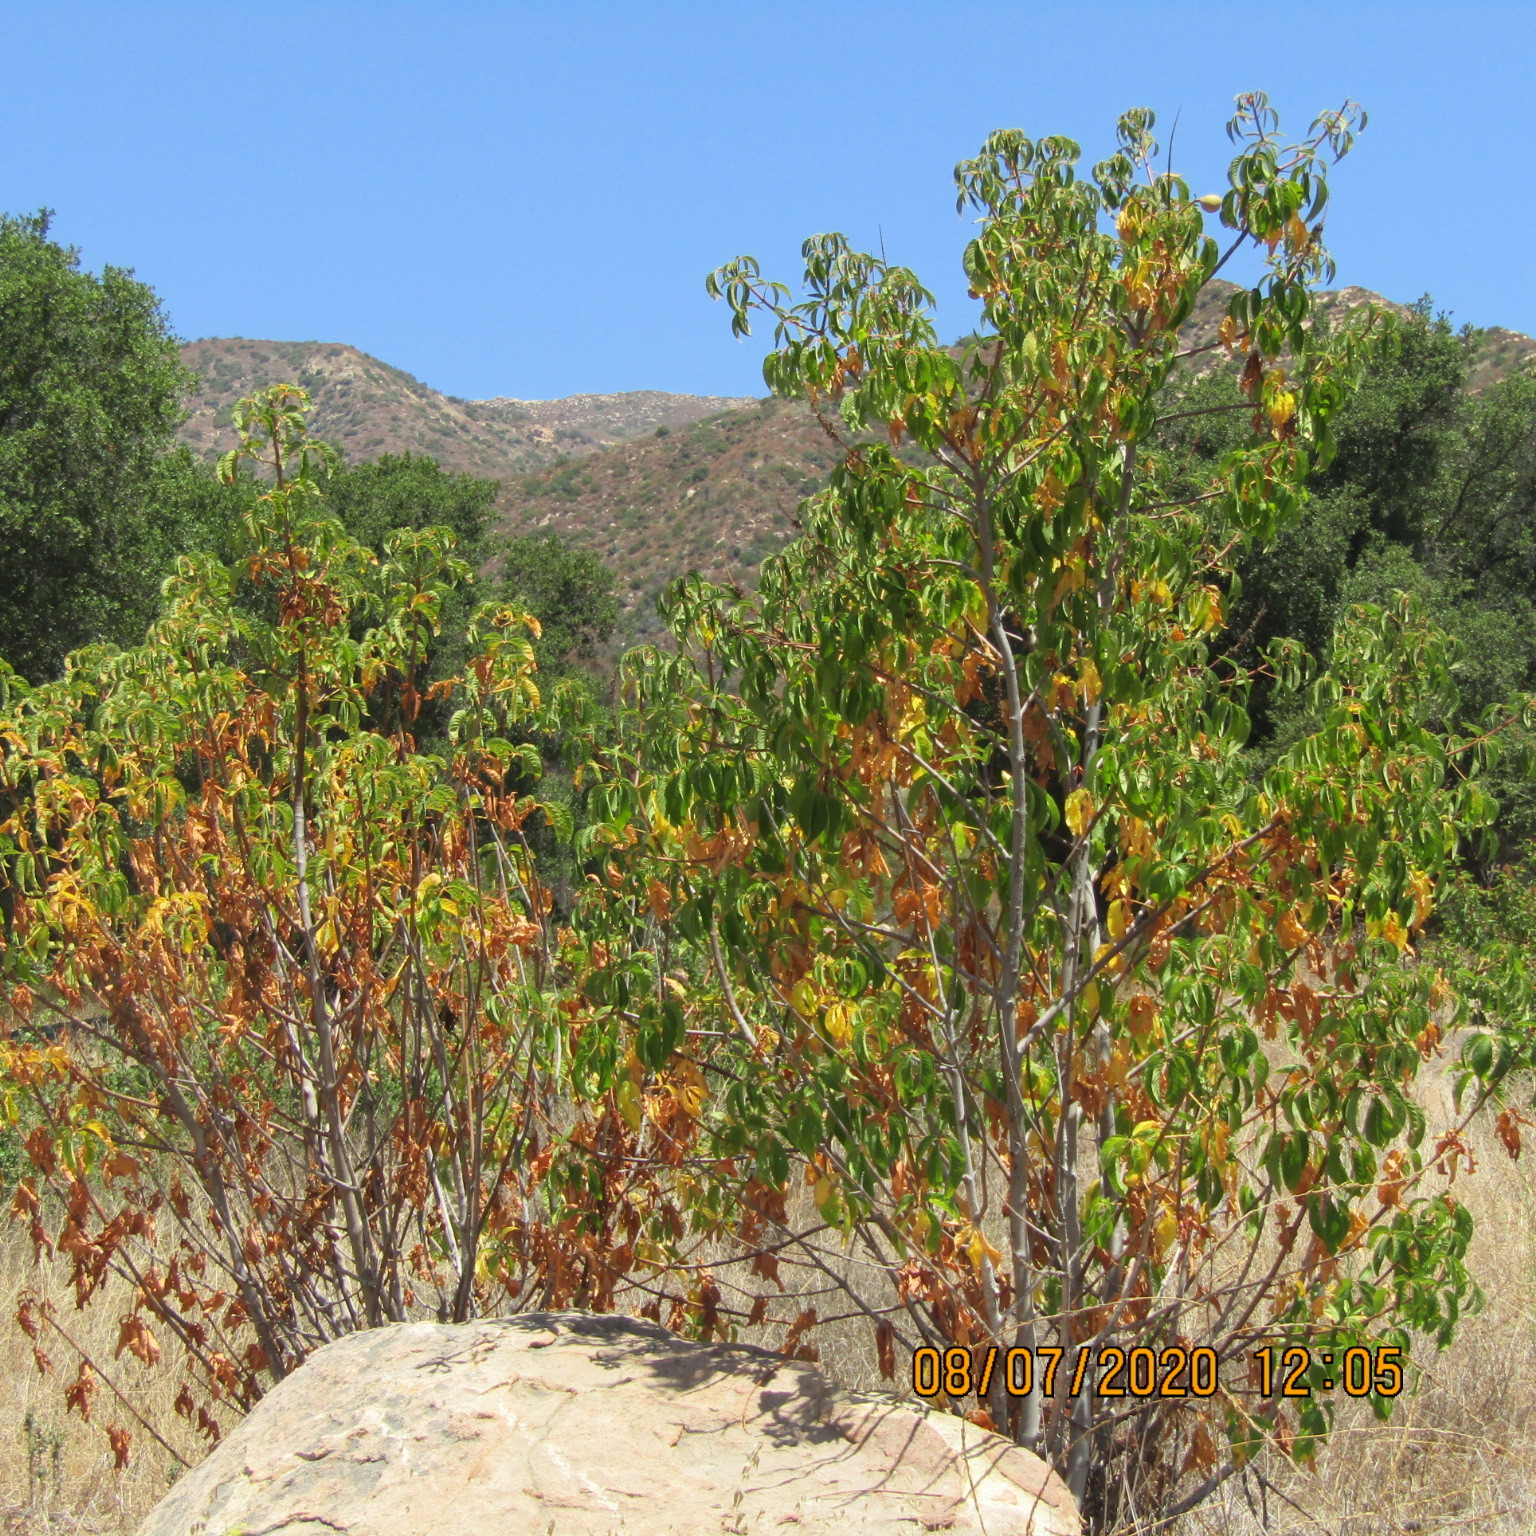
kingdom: Plantae
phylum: Tracheophyta
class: Magnoliopsida
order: Sapindales
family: Sapindaceae
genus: Aesculus
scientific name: Aesculus californica
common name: California buckeye
